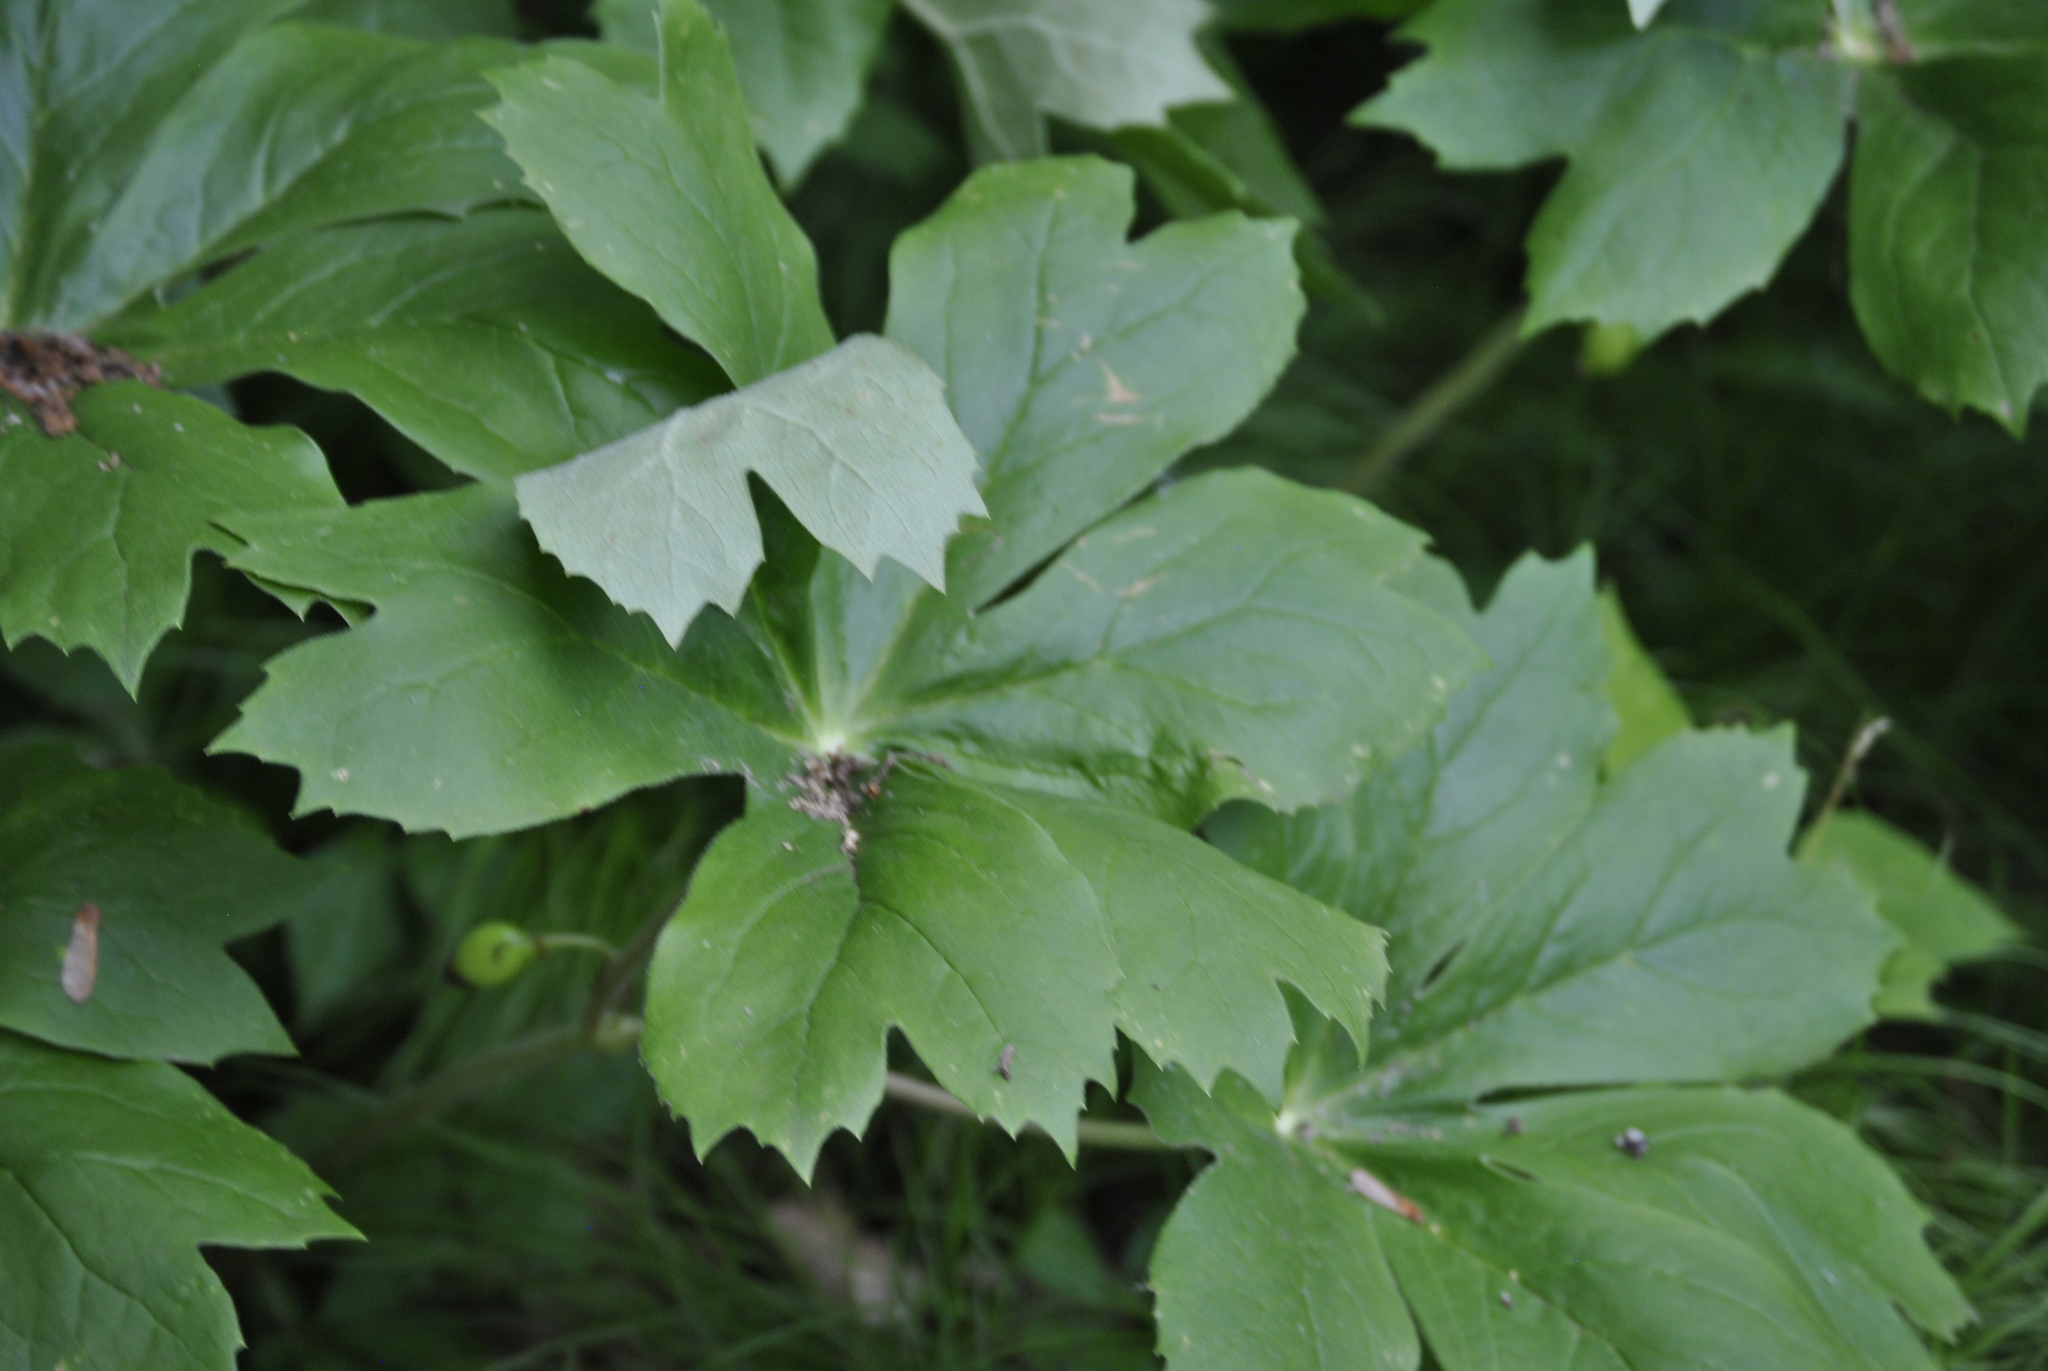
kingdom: Plantae
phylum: Tracheophyta
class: Magnoliopsida
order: Ranunculales
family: Berberidaceae
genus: Podophyllum
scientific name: Podophyllum peltatum
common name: Wild mandrake
